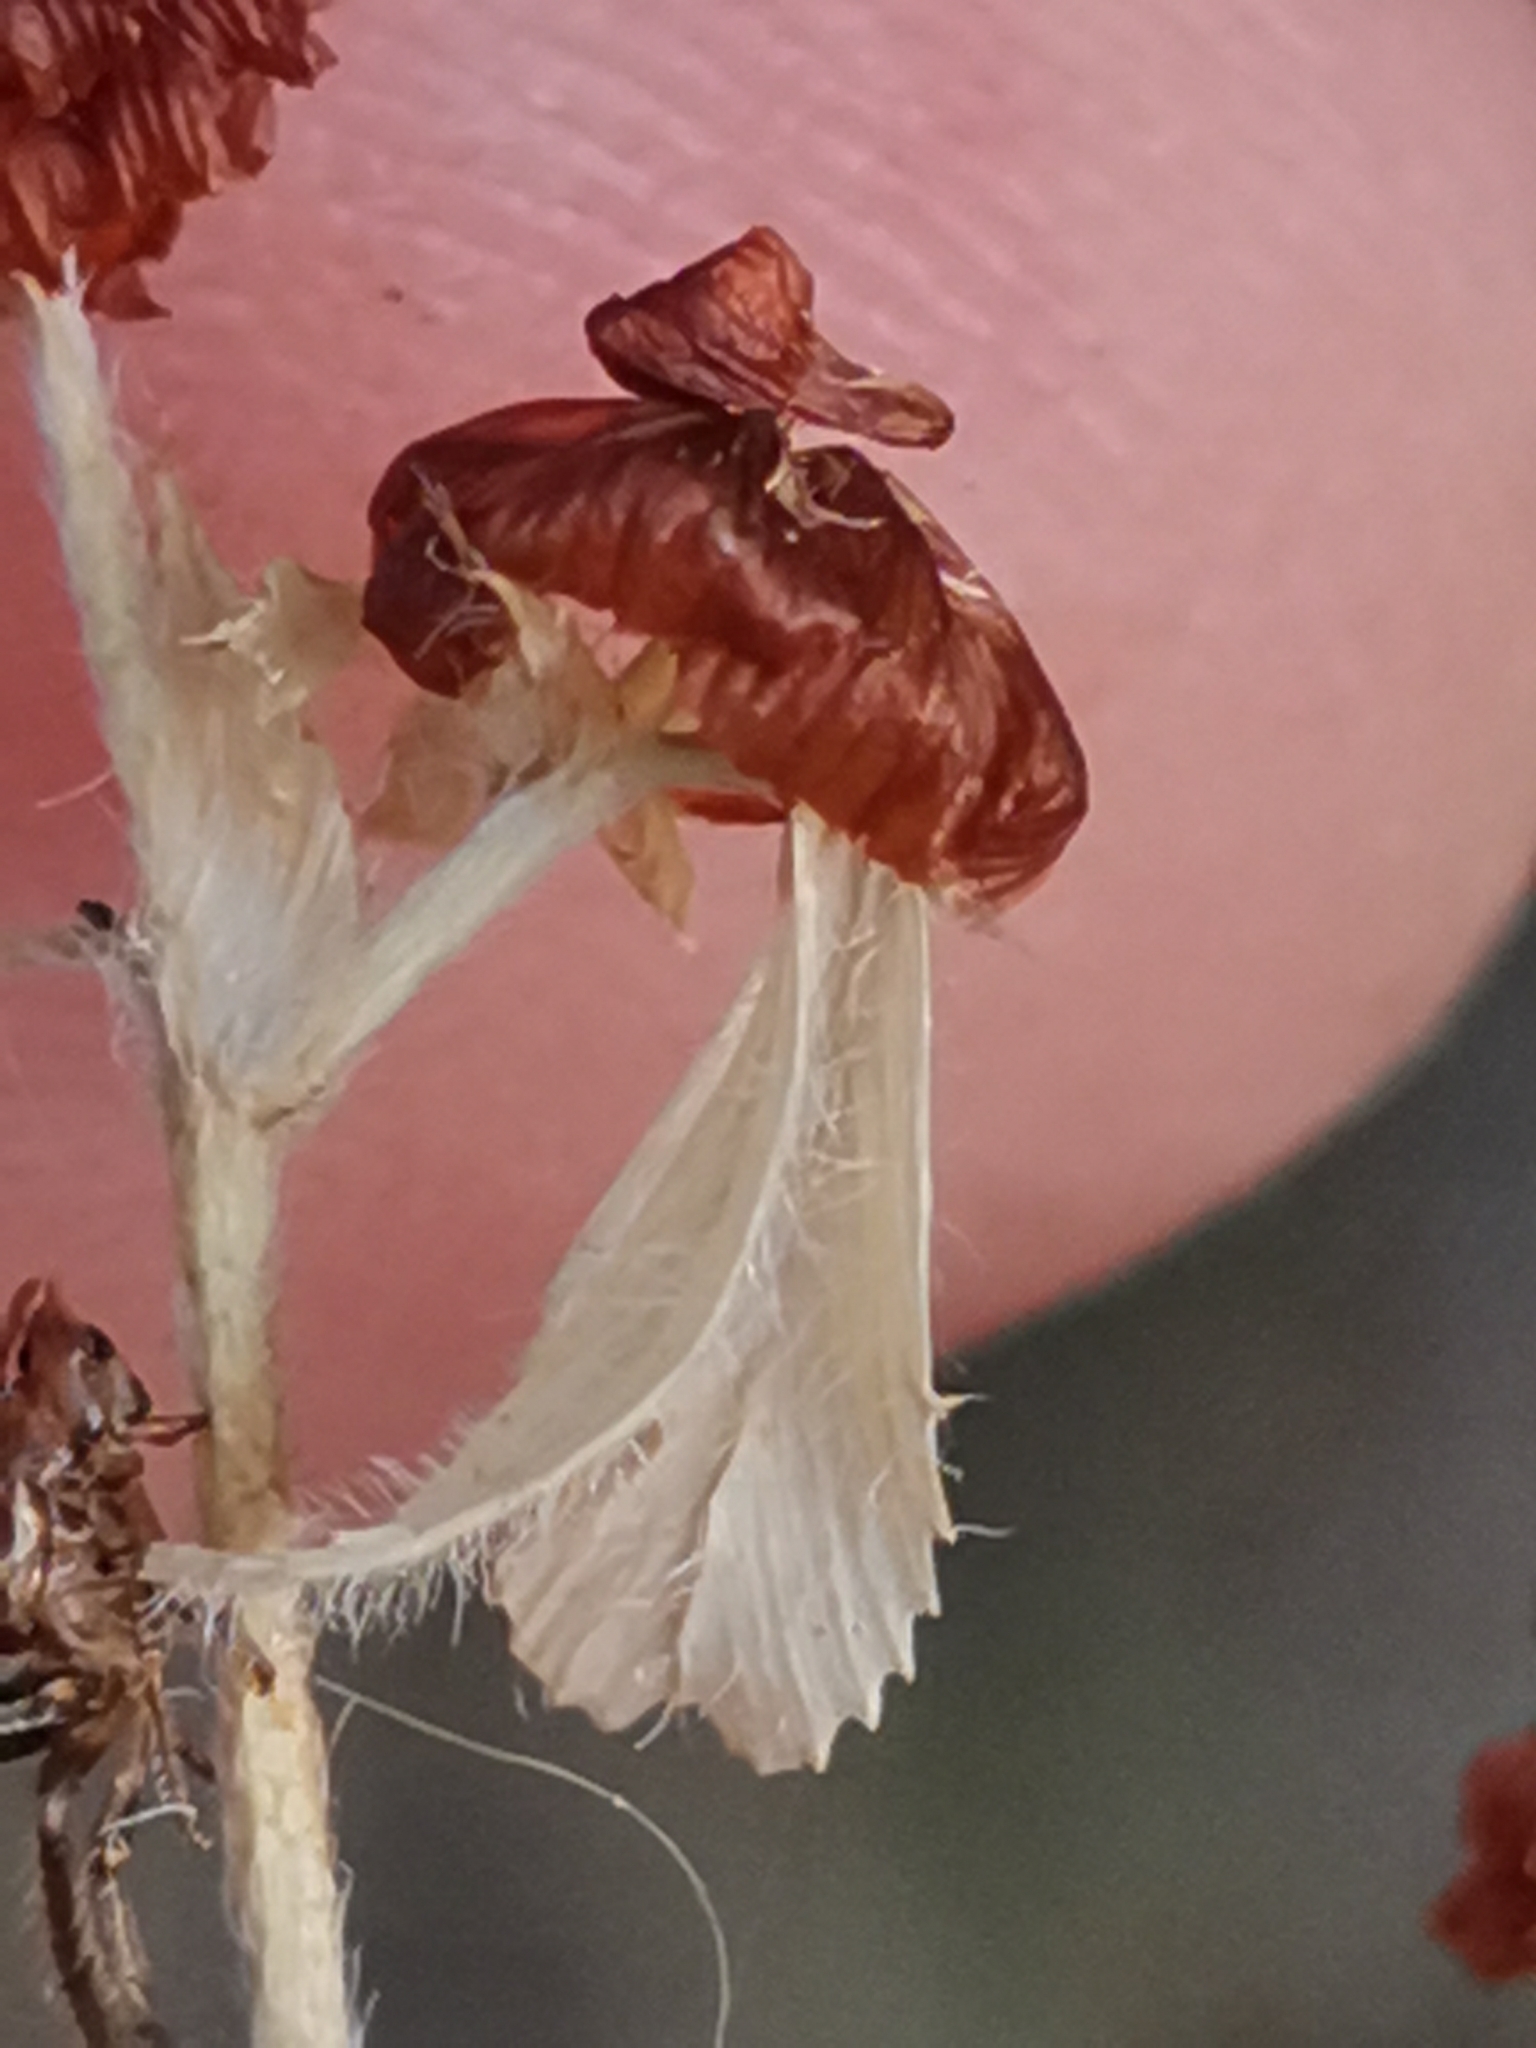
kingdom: Plantae
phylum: Tracheophyta
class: Magnoliopsida
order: Fabales
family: Fabaceae
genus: Trifolium
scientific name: Trifolium campestre
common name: Field clover
